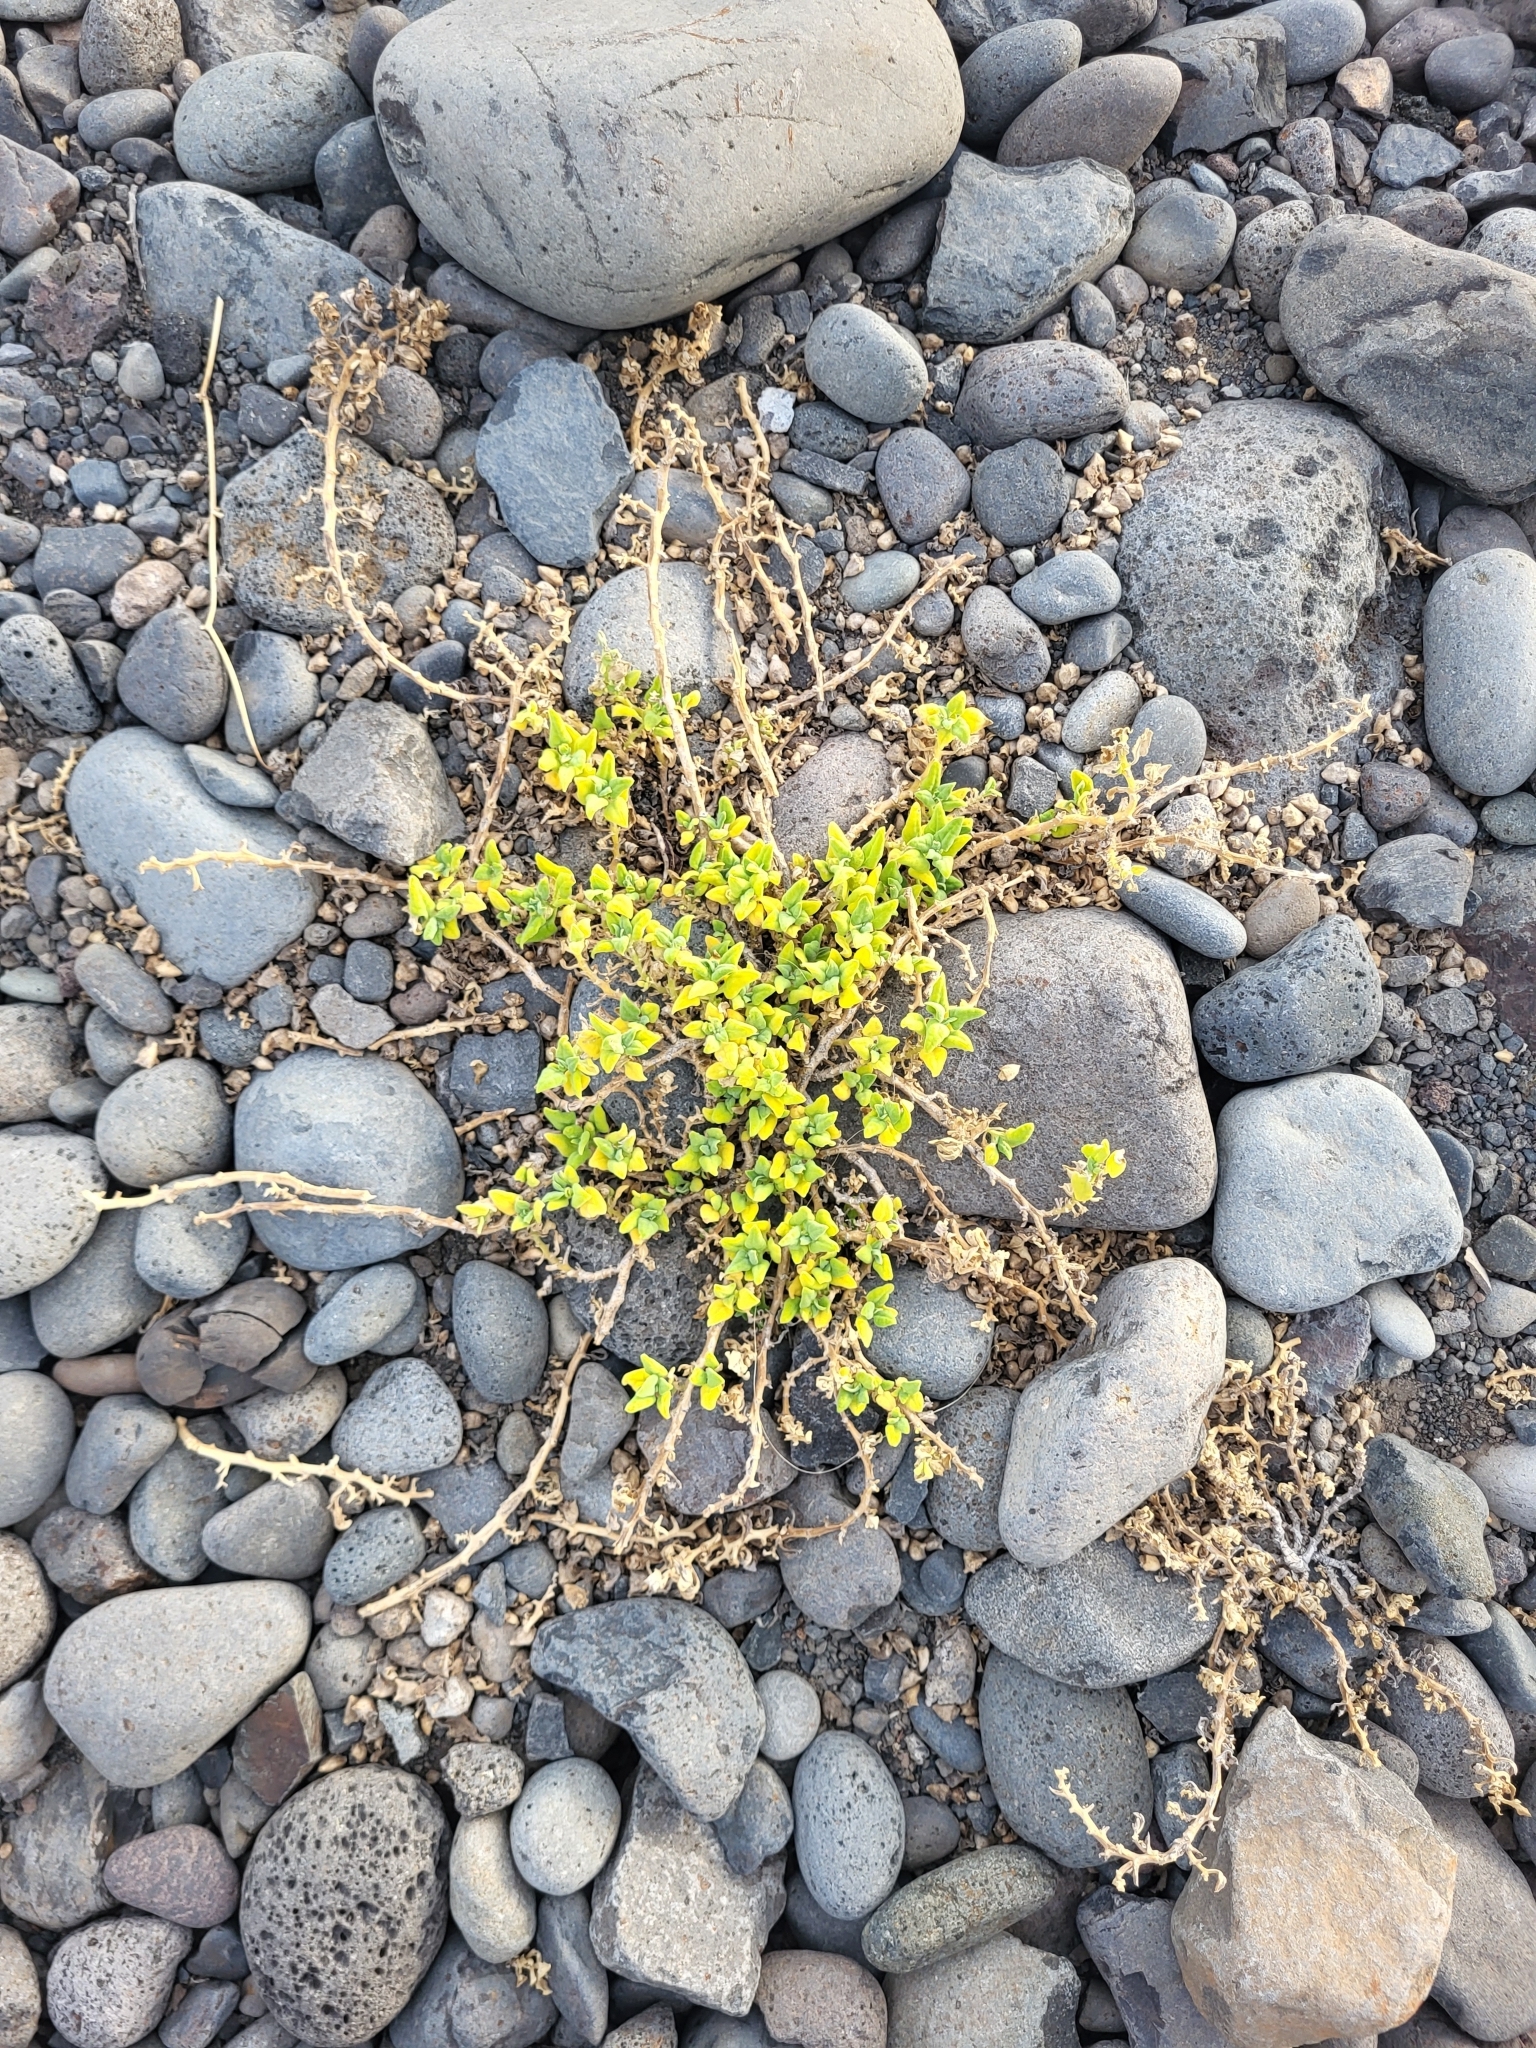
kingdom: Plantae
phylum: Tracheophyta
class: Magnoliopsida
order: Caryophyllales
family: Aizoaceae
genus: Tetragonia
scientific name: Tetragonia tetragonoides
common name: New zealand-spinach
